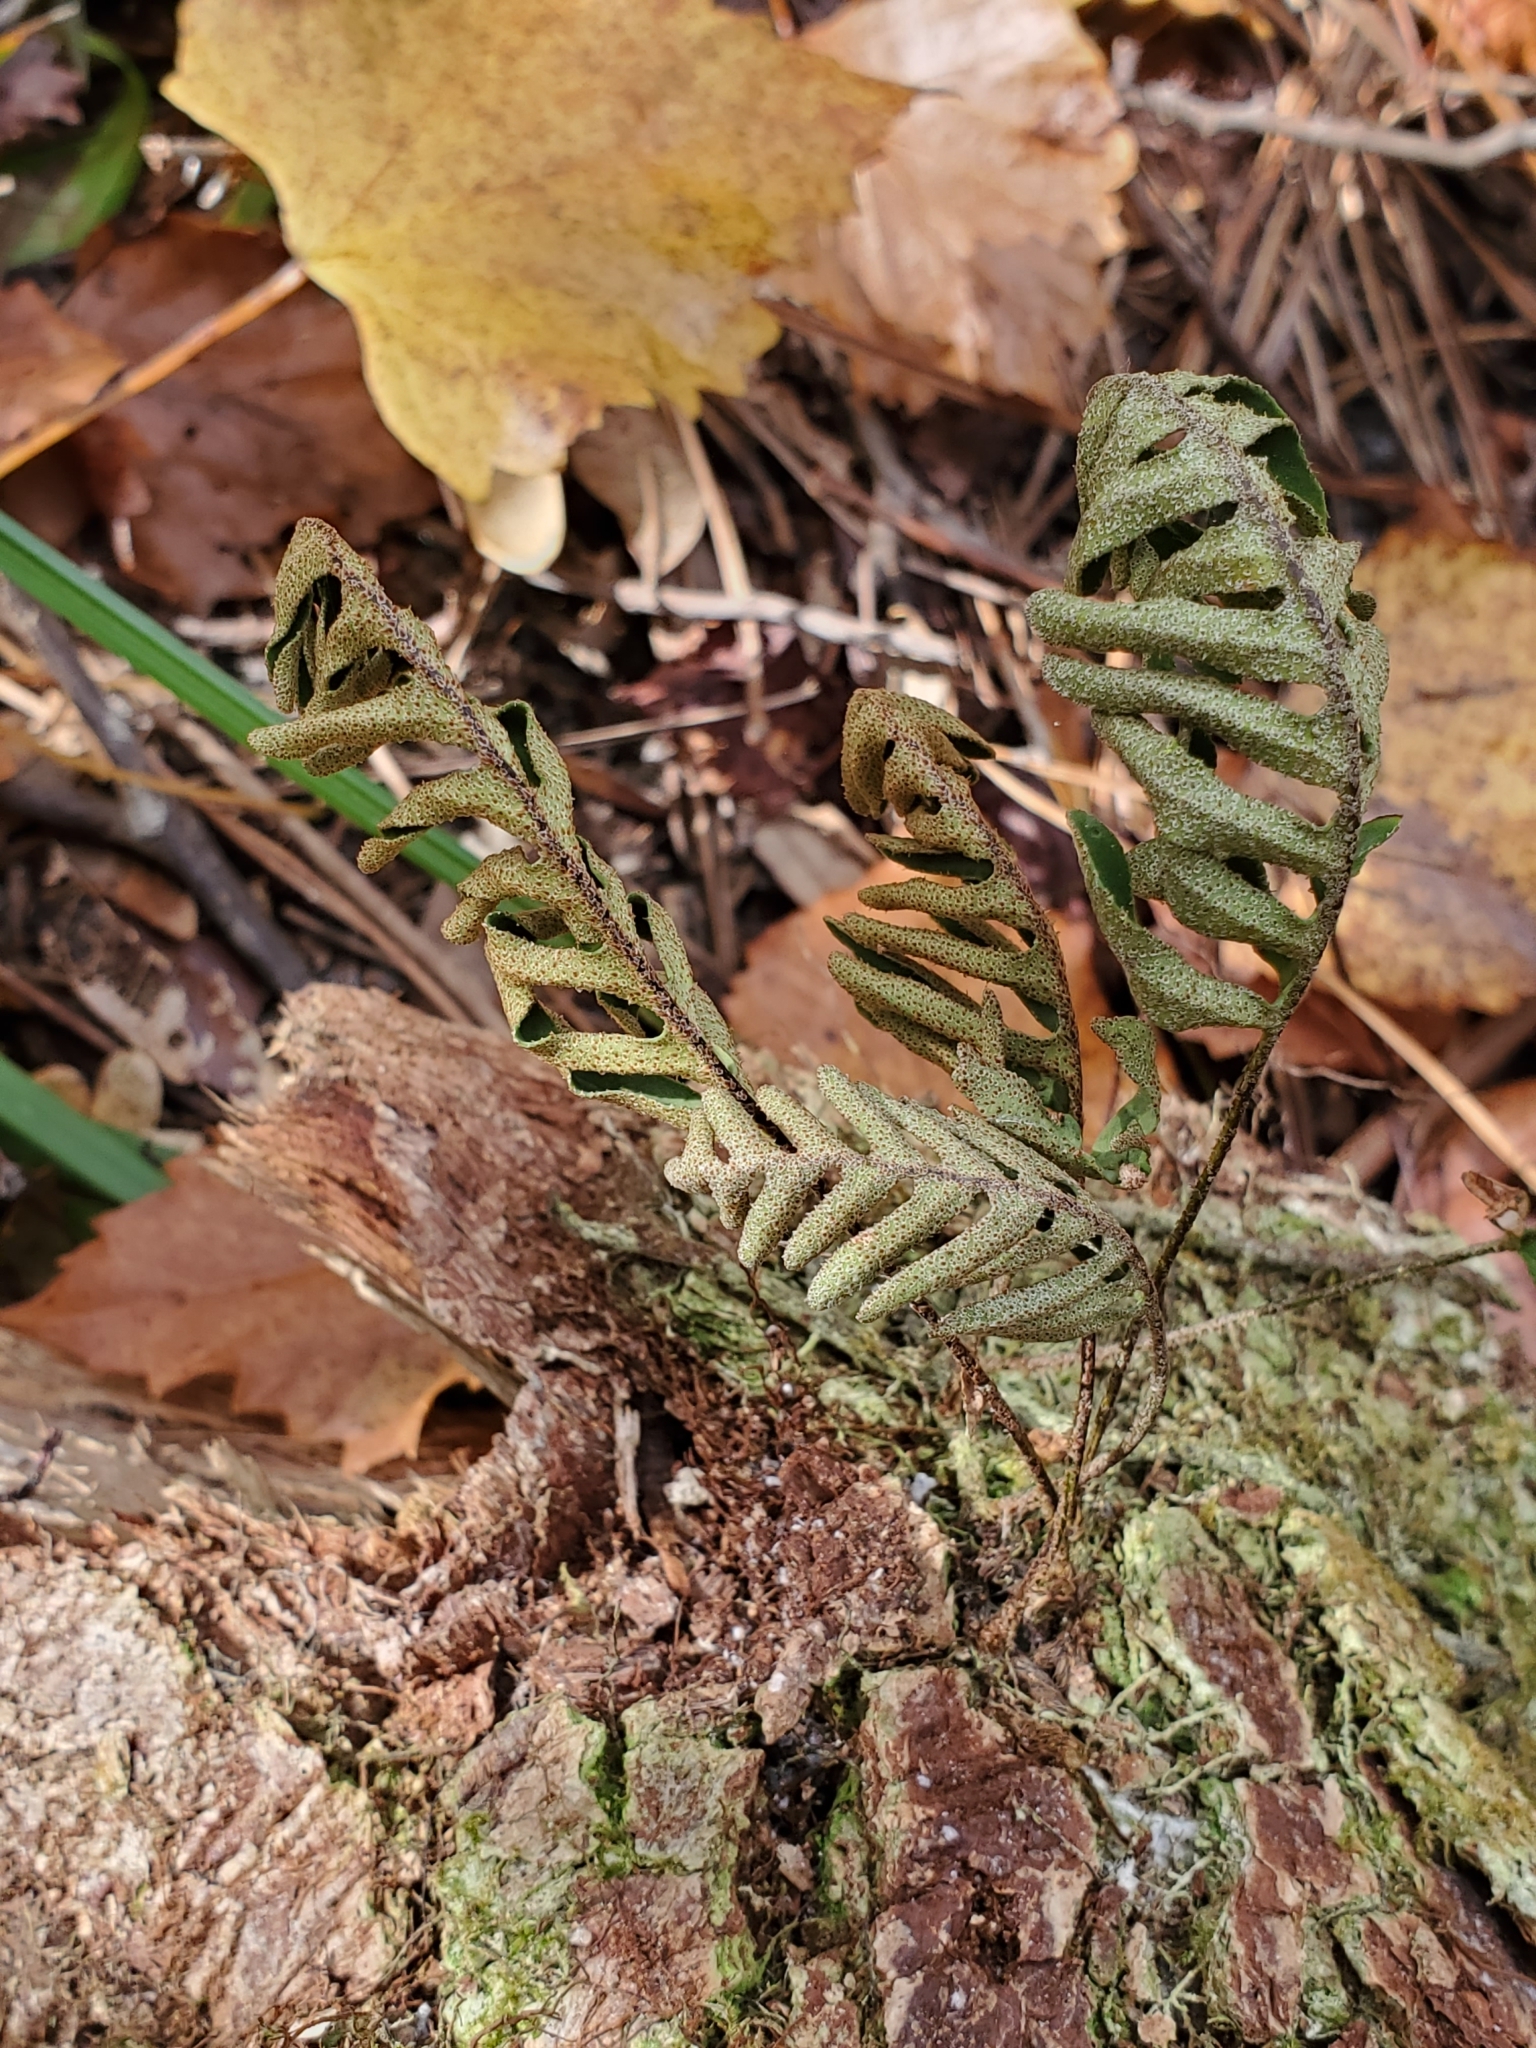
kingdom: Plantae
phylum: Tracheophyta
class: Polypodiopsida
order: Polypodiales
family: Polypodiaceae
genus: Pleopeltis
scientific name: Pleopeltis michauxiana
